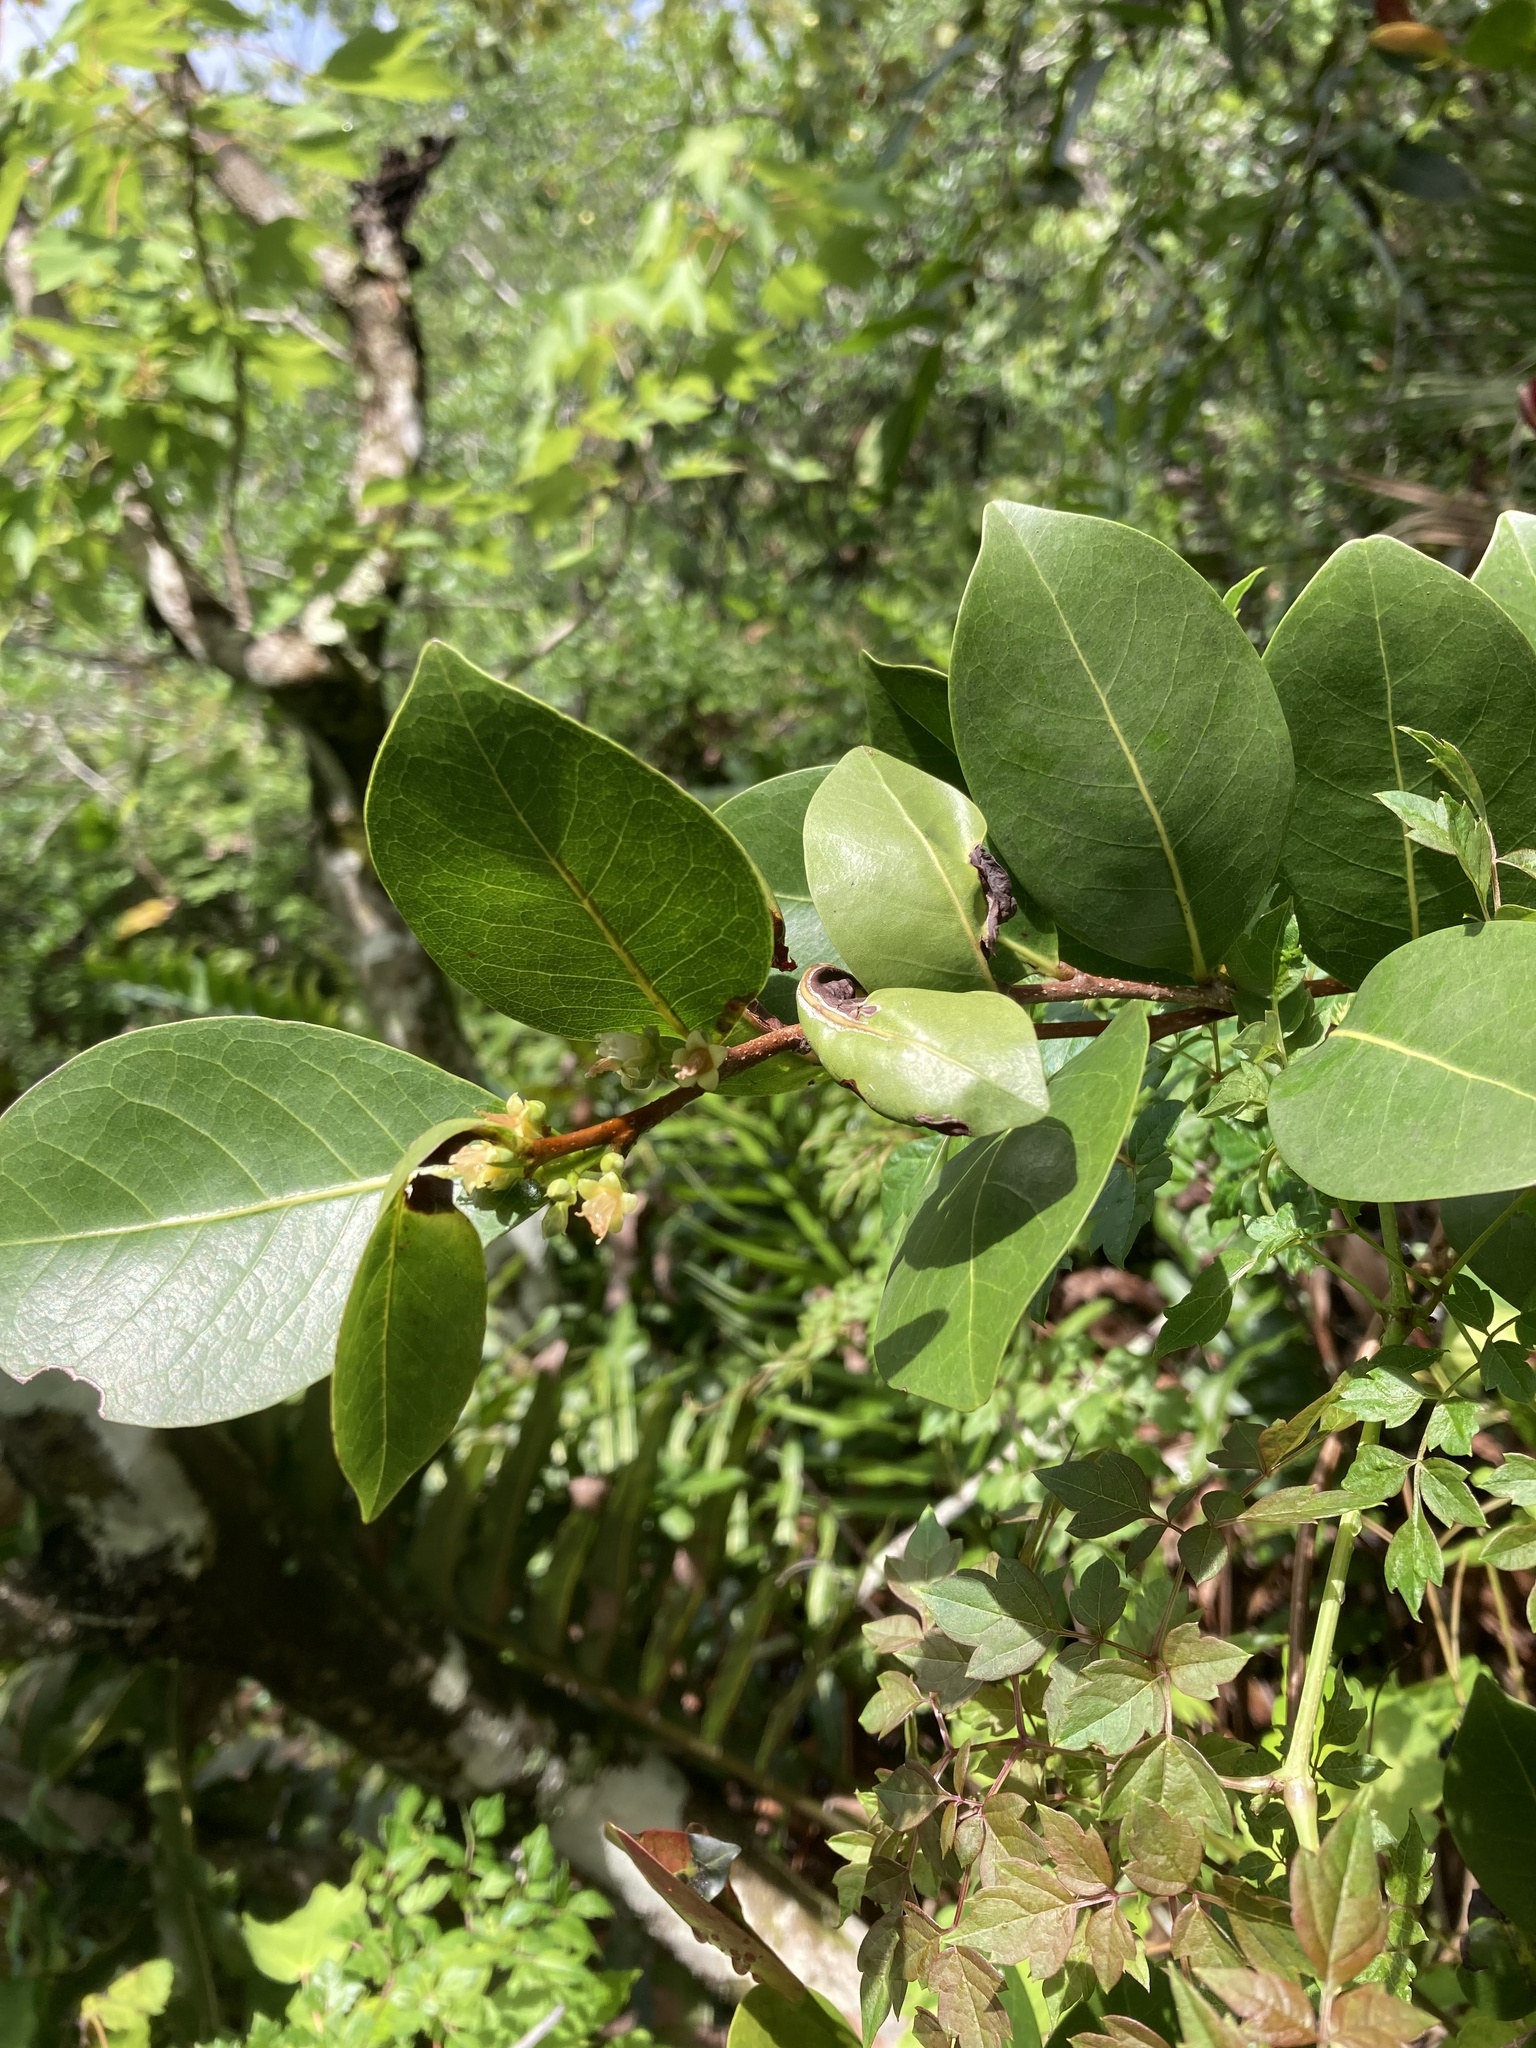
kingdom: Plantae
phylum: Tracheophyta
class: Magnoliopsida
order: Malpighiales
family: Chrysobalanaceae
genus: Chrysobalanus
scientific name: Chrysobalanus icaco
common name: Coco plum
